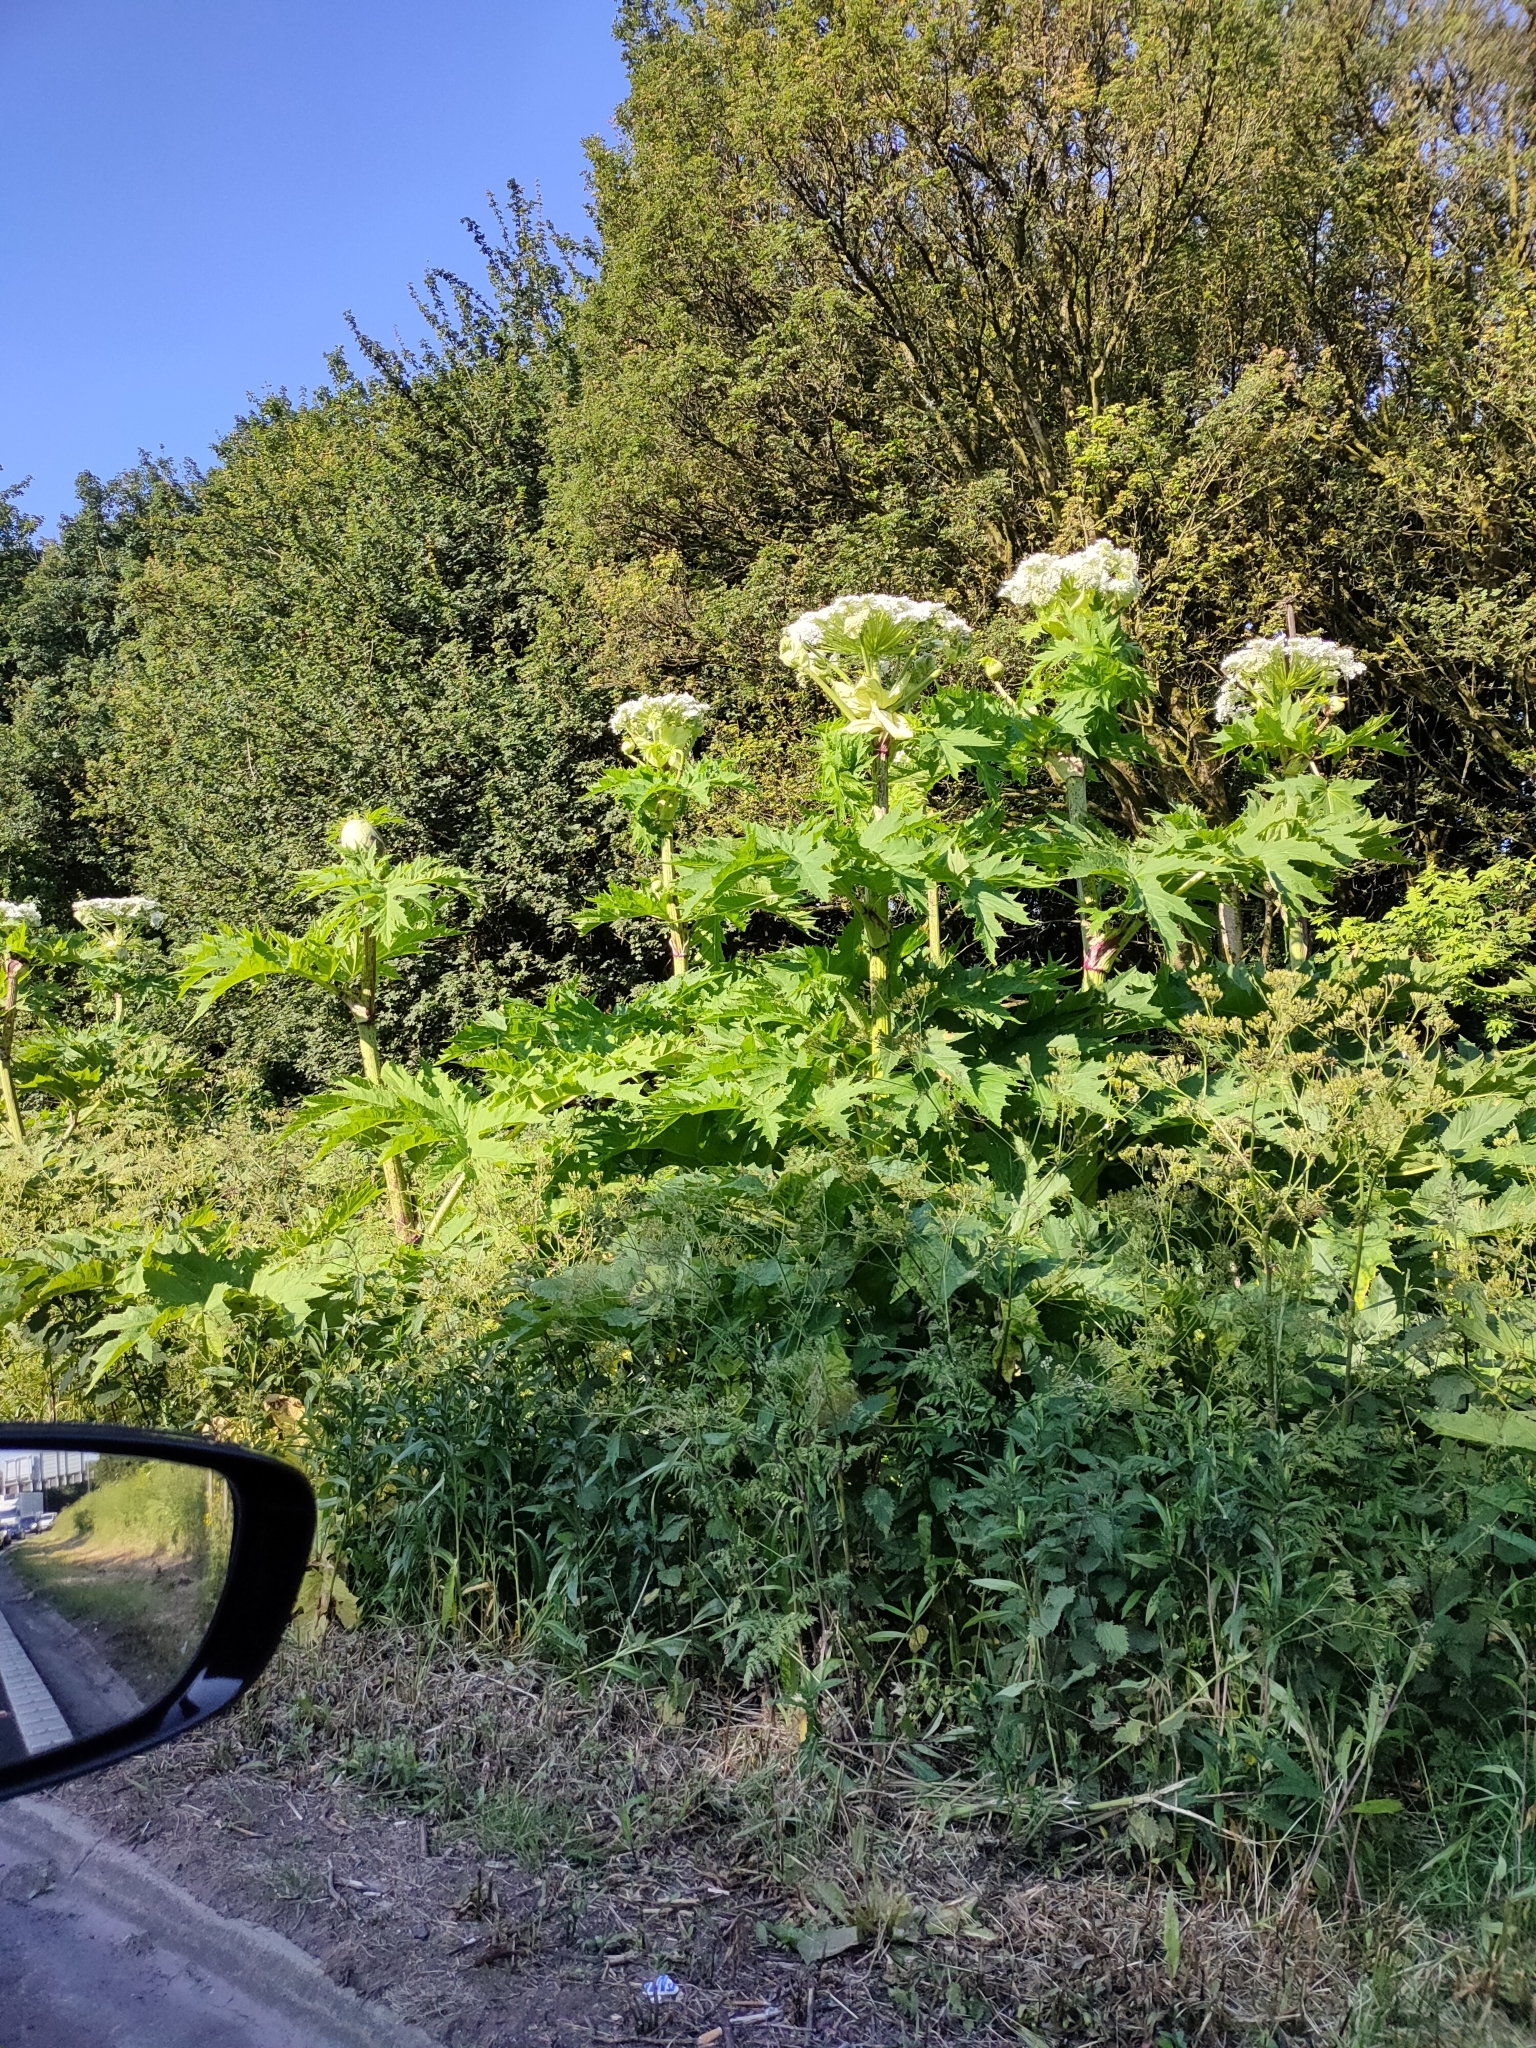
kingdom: Plantae
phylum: Tracheophyta
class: Magnoliopsida
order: Apiales
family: Apiaceae
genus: Heracleum
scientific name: Heracleum mantegazzianum
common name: Giant hogweed
